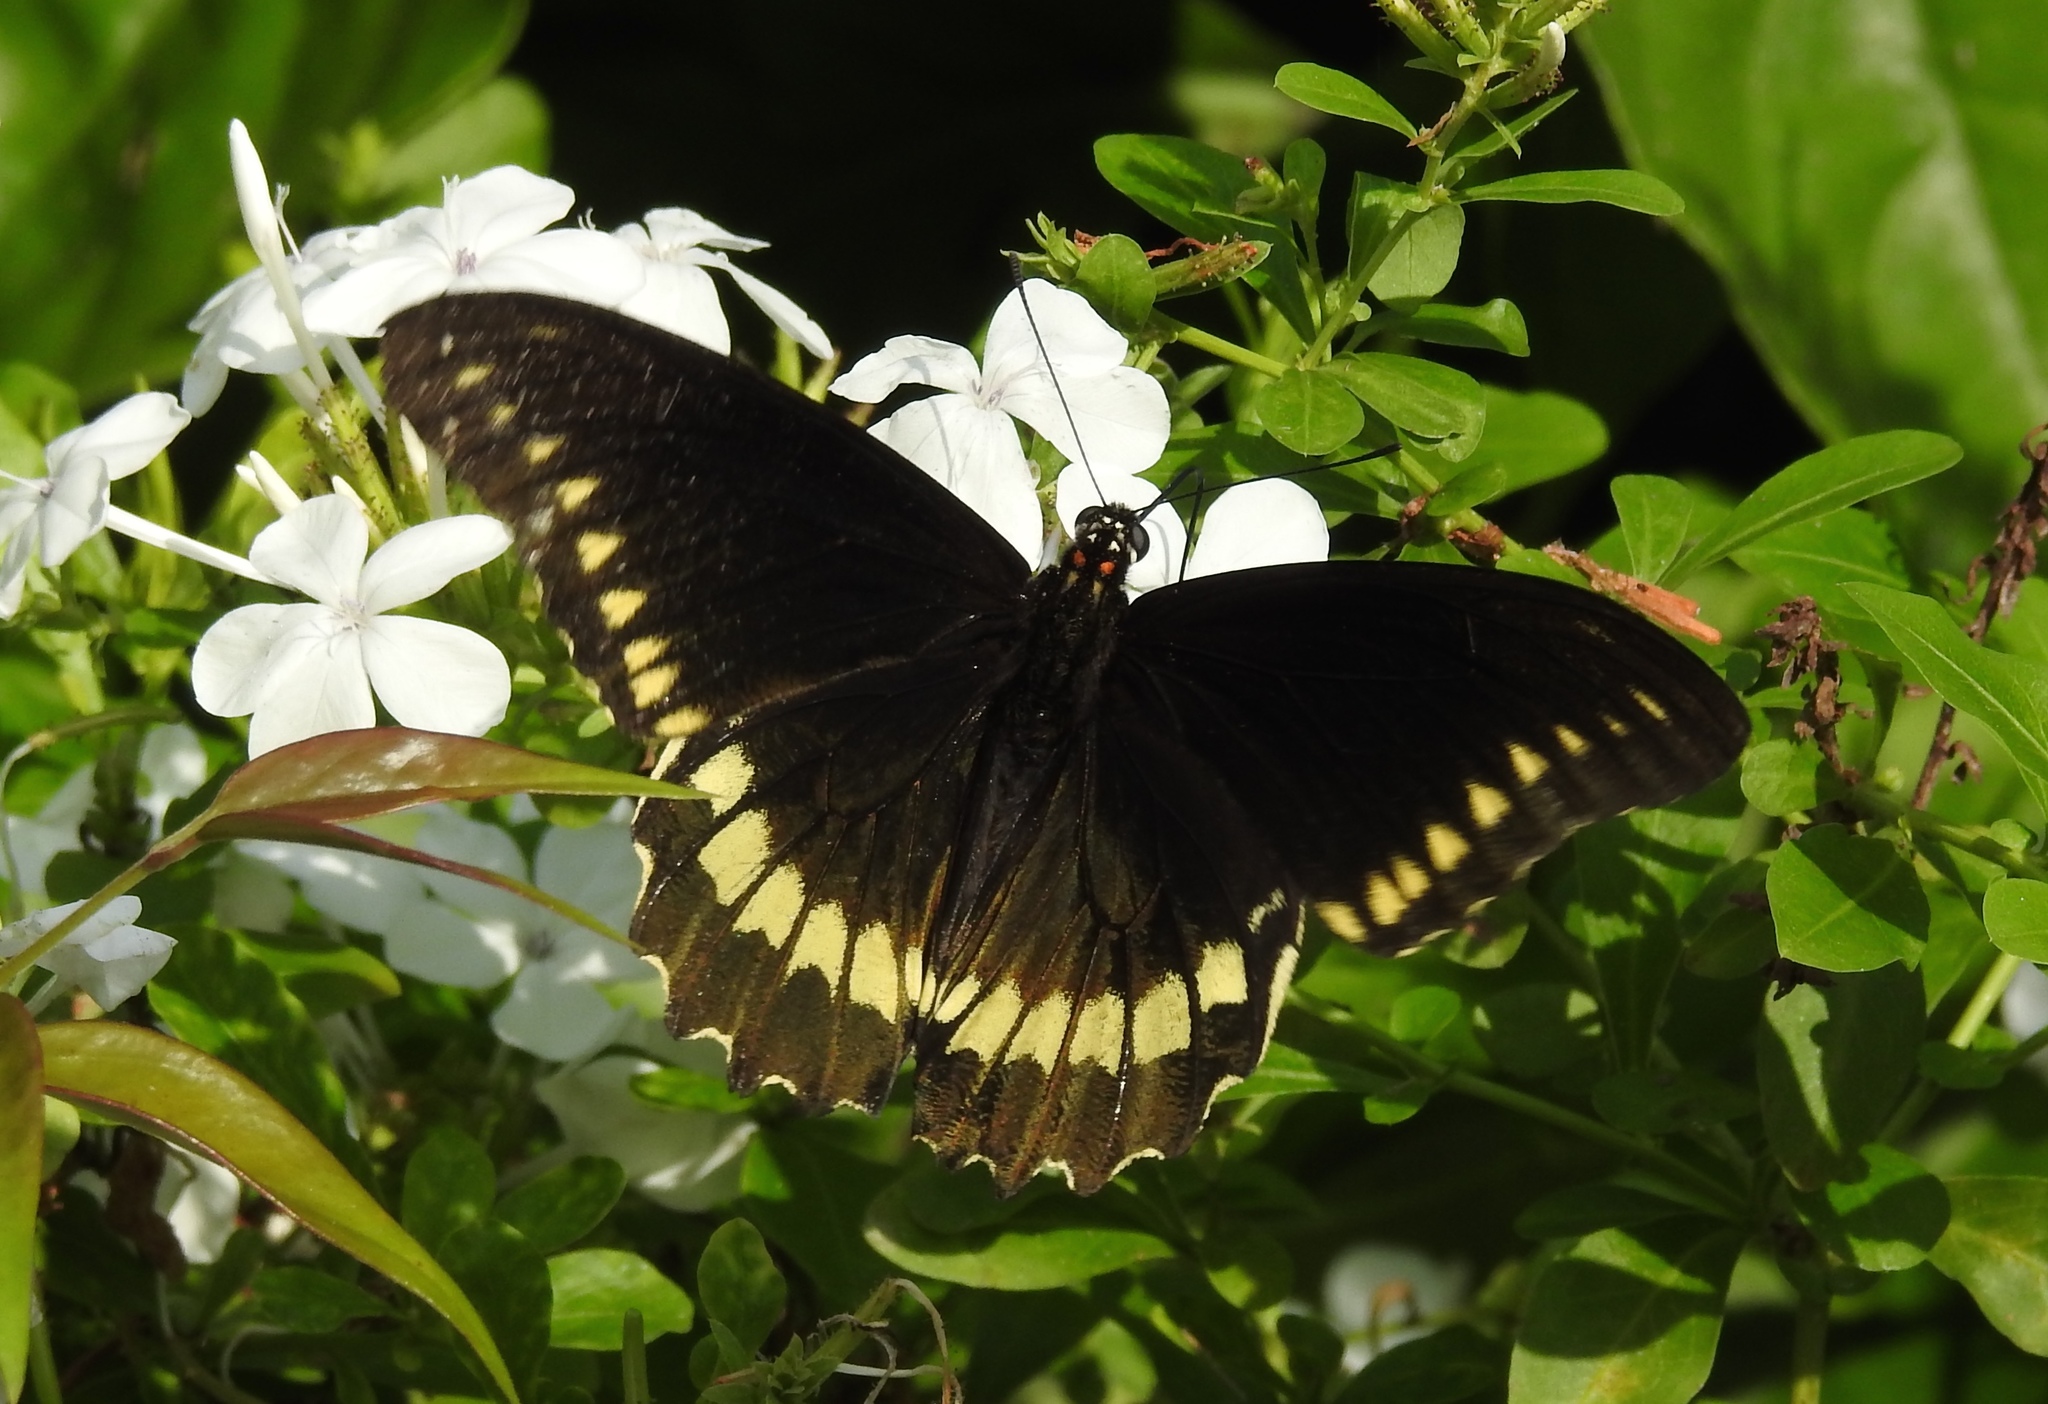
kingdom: Animalia
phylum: Arthropoda
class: Insecta
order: Lepidoptera
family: Papilionidae
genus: Battus
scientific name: Battus polydamas
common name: Polydamas swallowtail
